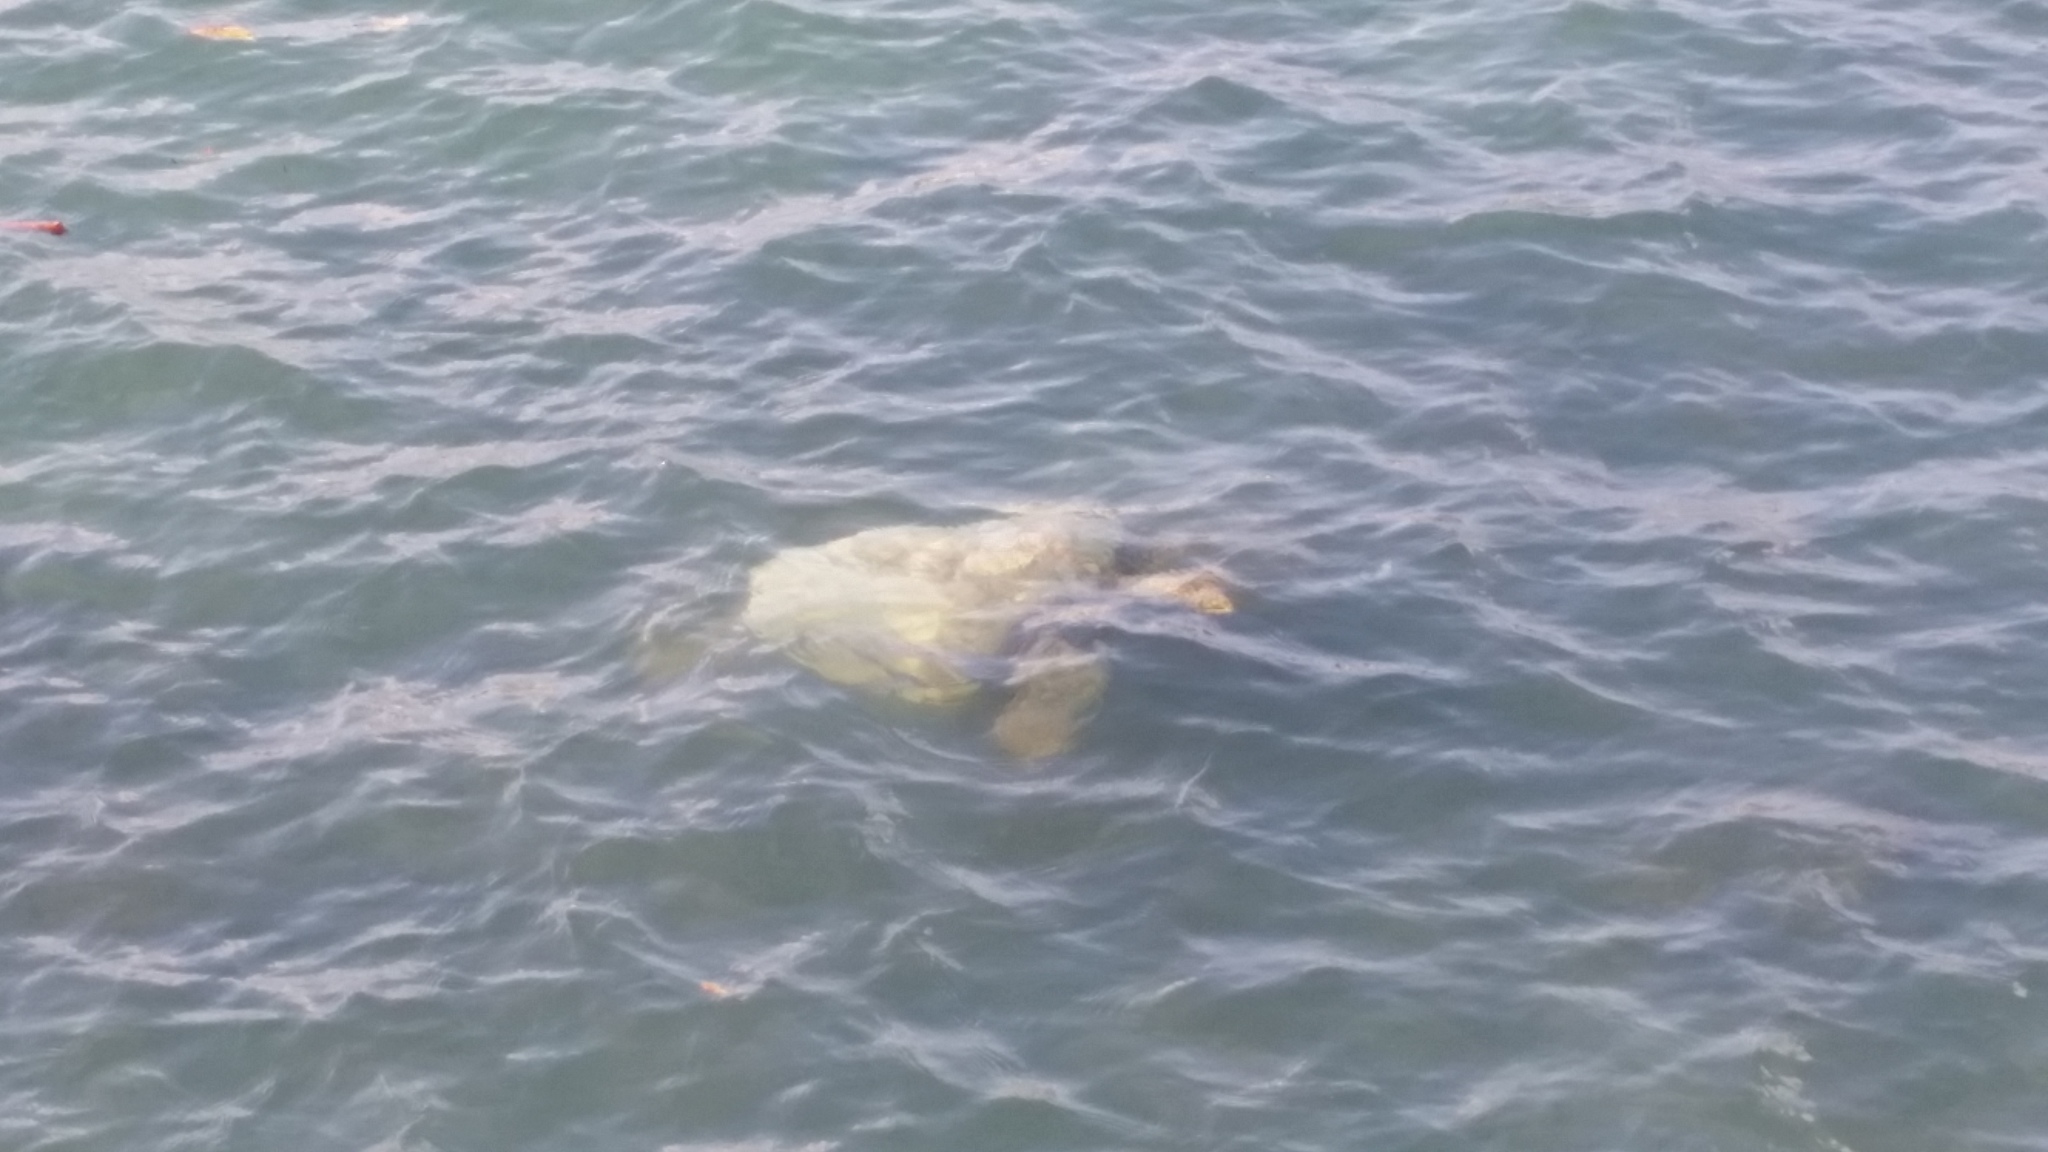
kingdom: Animalia
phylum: Chordata
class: Testudines
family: Cheloniidae
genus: Chelonia
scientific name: Chelonia mydas
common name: Green turtle
